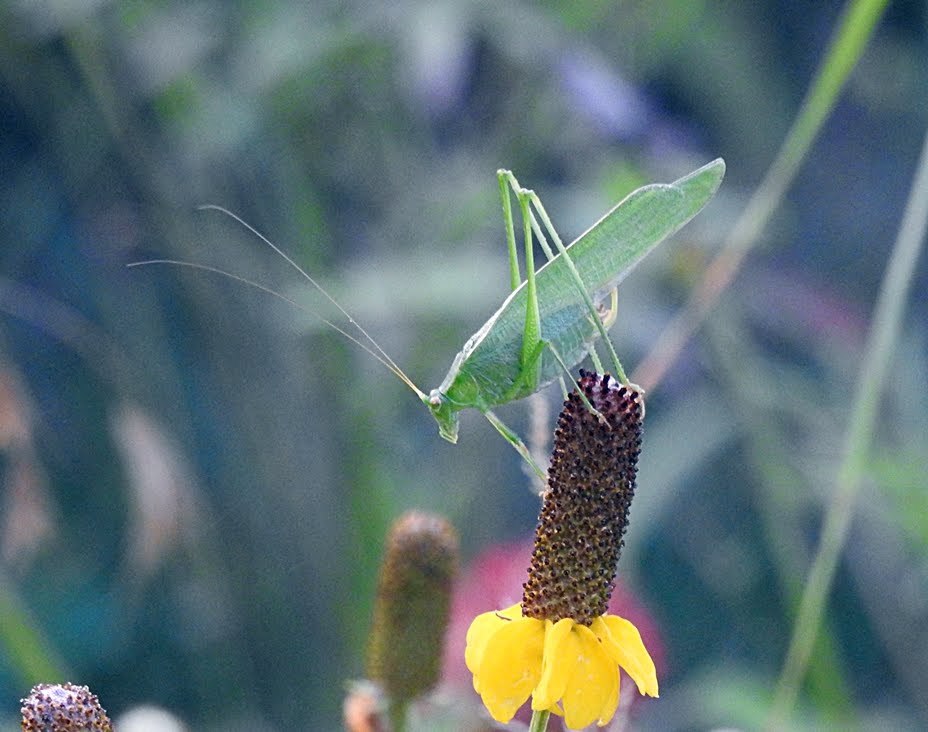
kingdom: Animalia
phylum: Arthropoda
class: Insecta
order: Orthoptera
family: Tettigoniidae
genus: Scudderia
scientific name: Scudderia furcata
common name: Fork-tailed bush katydid
